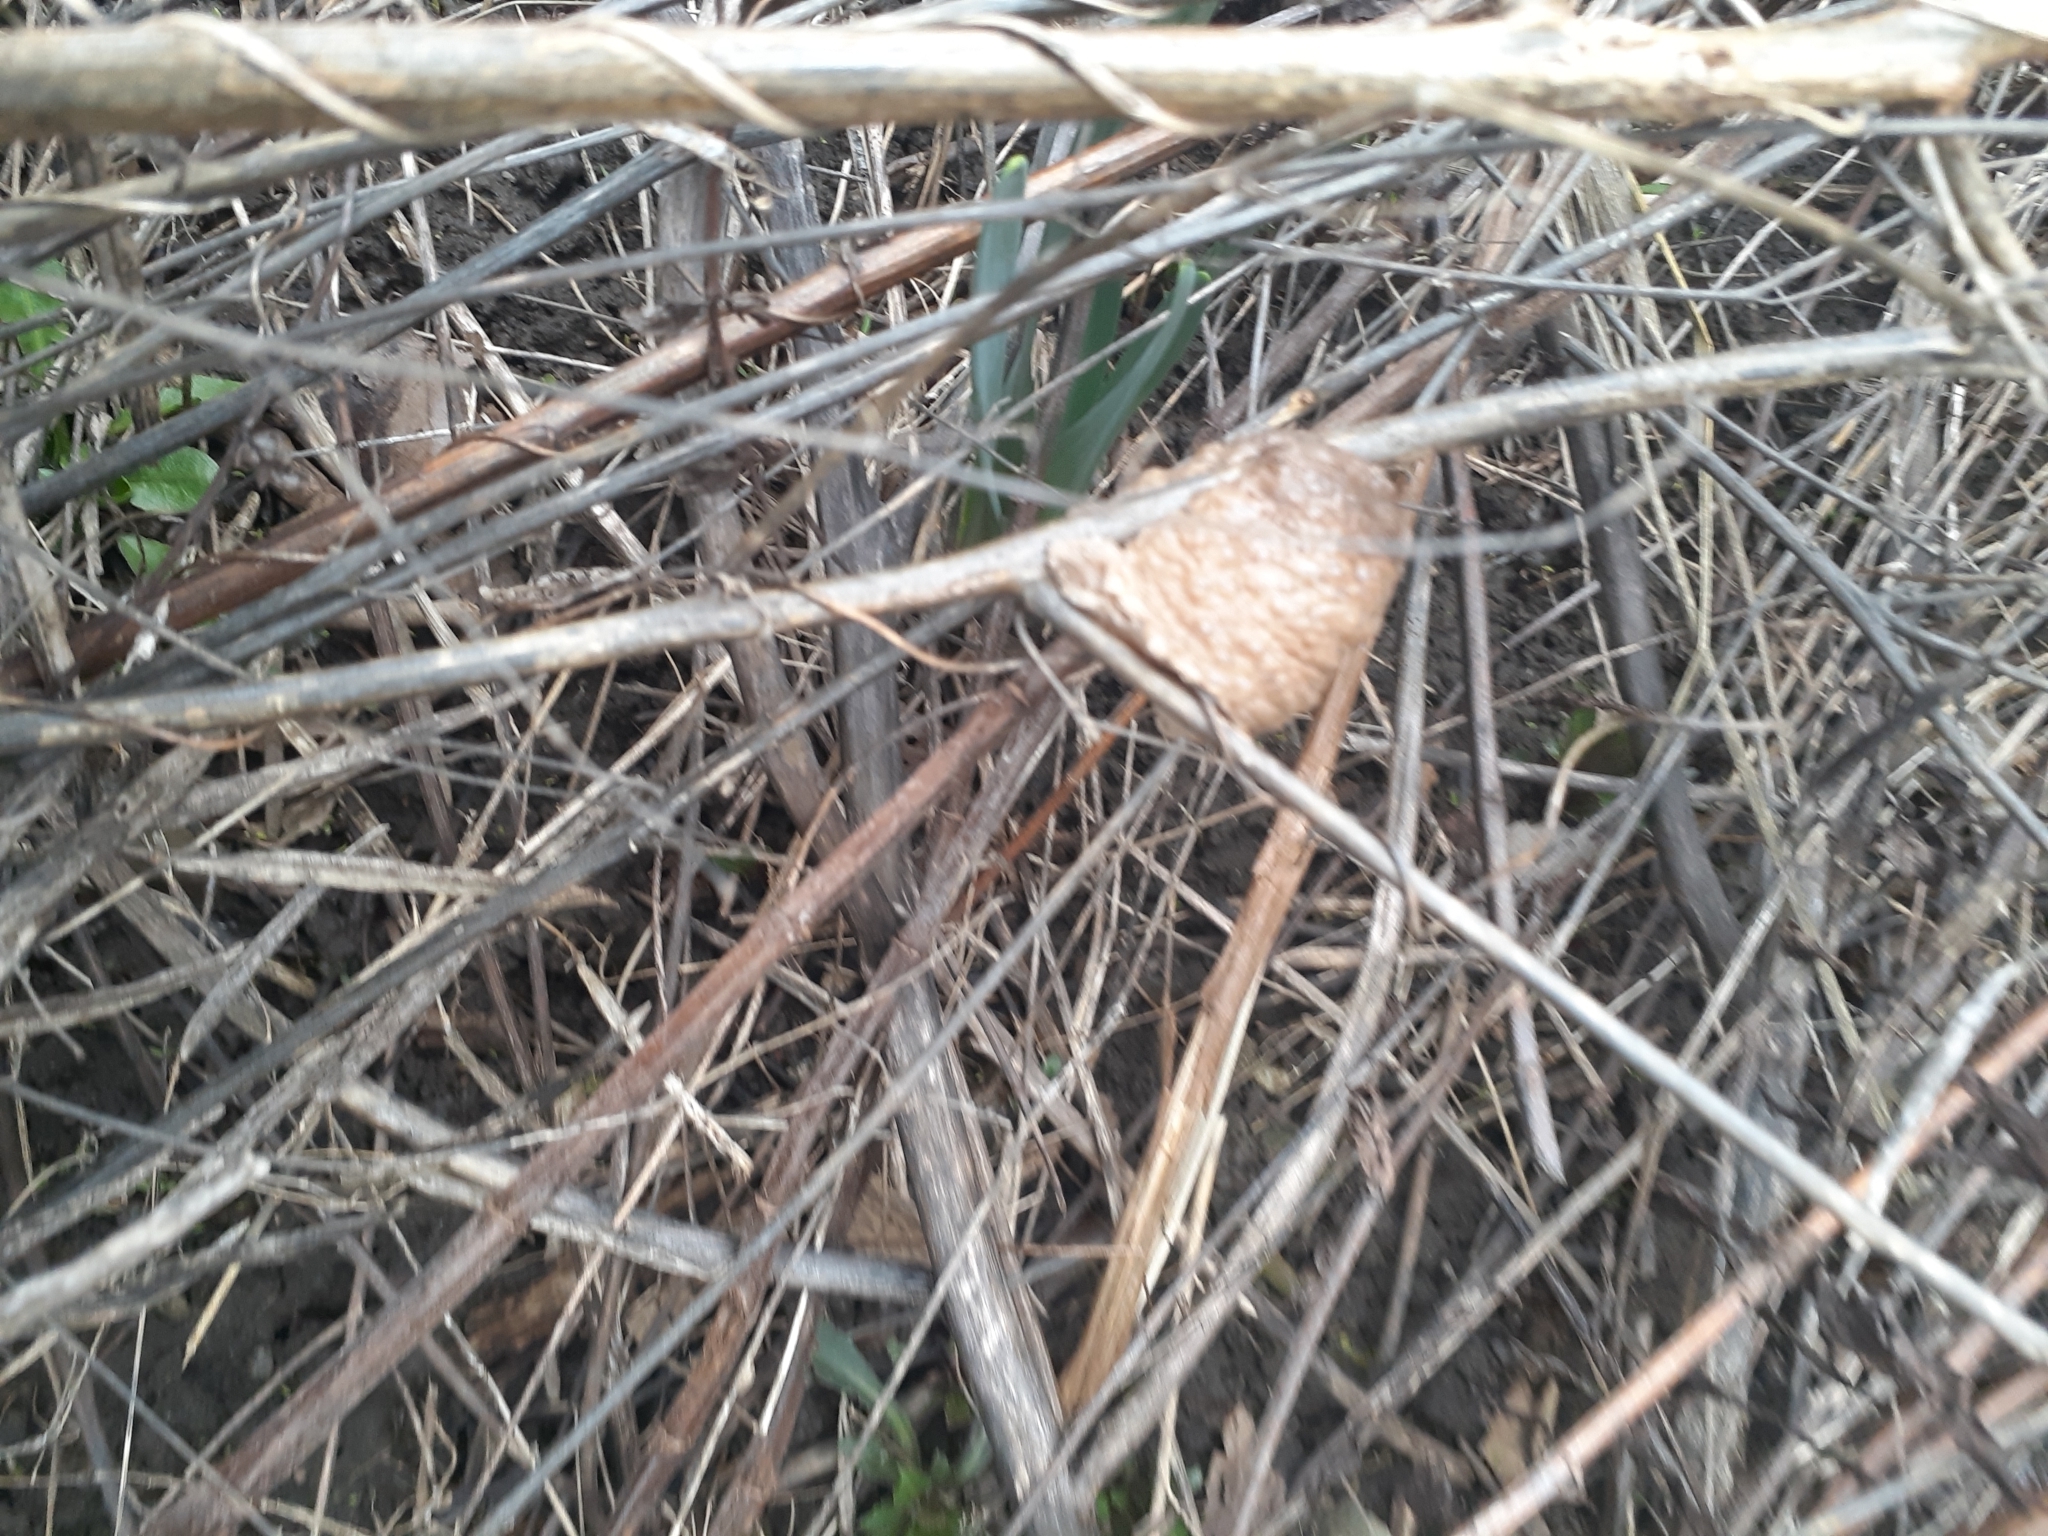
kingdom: Animalia
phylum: Arthropoda
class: Insecta
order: Mantodea
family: Mantidae
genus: Tenodera
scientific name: Tenodera sinensis
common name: Chinese mantis
